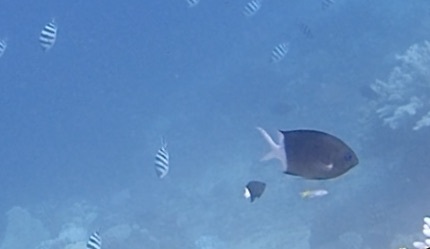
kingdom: Animalia
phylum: Chordata
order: Perciformes
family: Pomacentridae
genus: Acanthochromis
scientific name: Acanthochromis polyacanthus
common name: Spiny chromis
